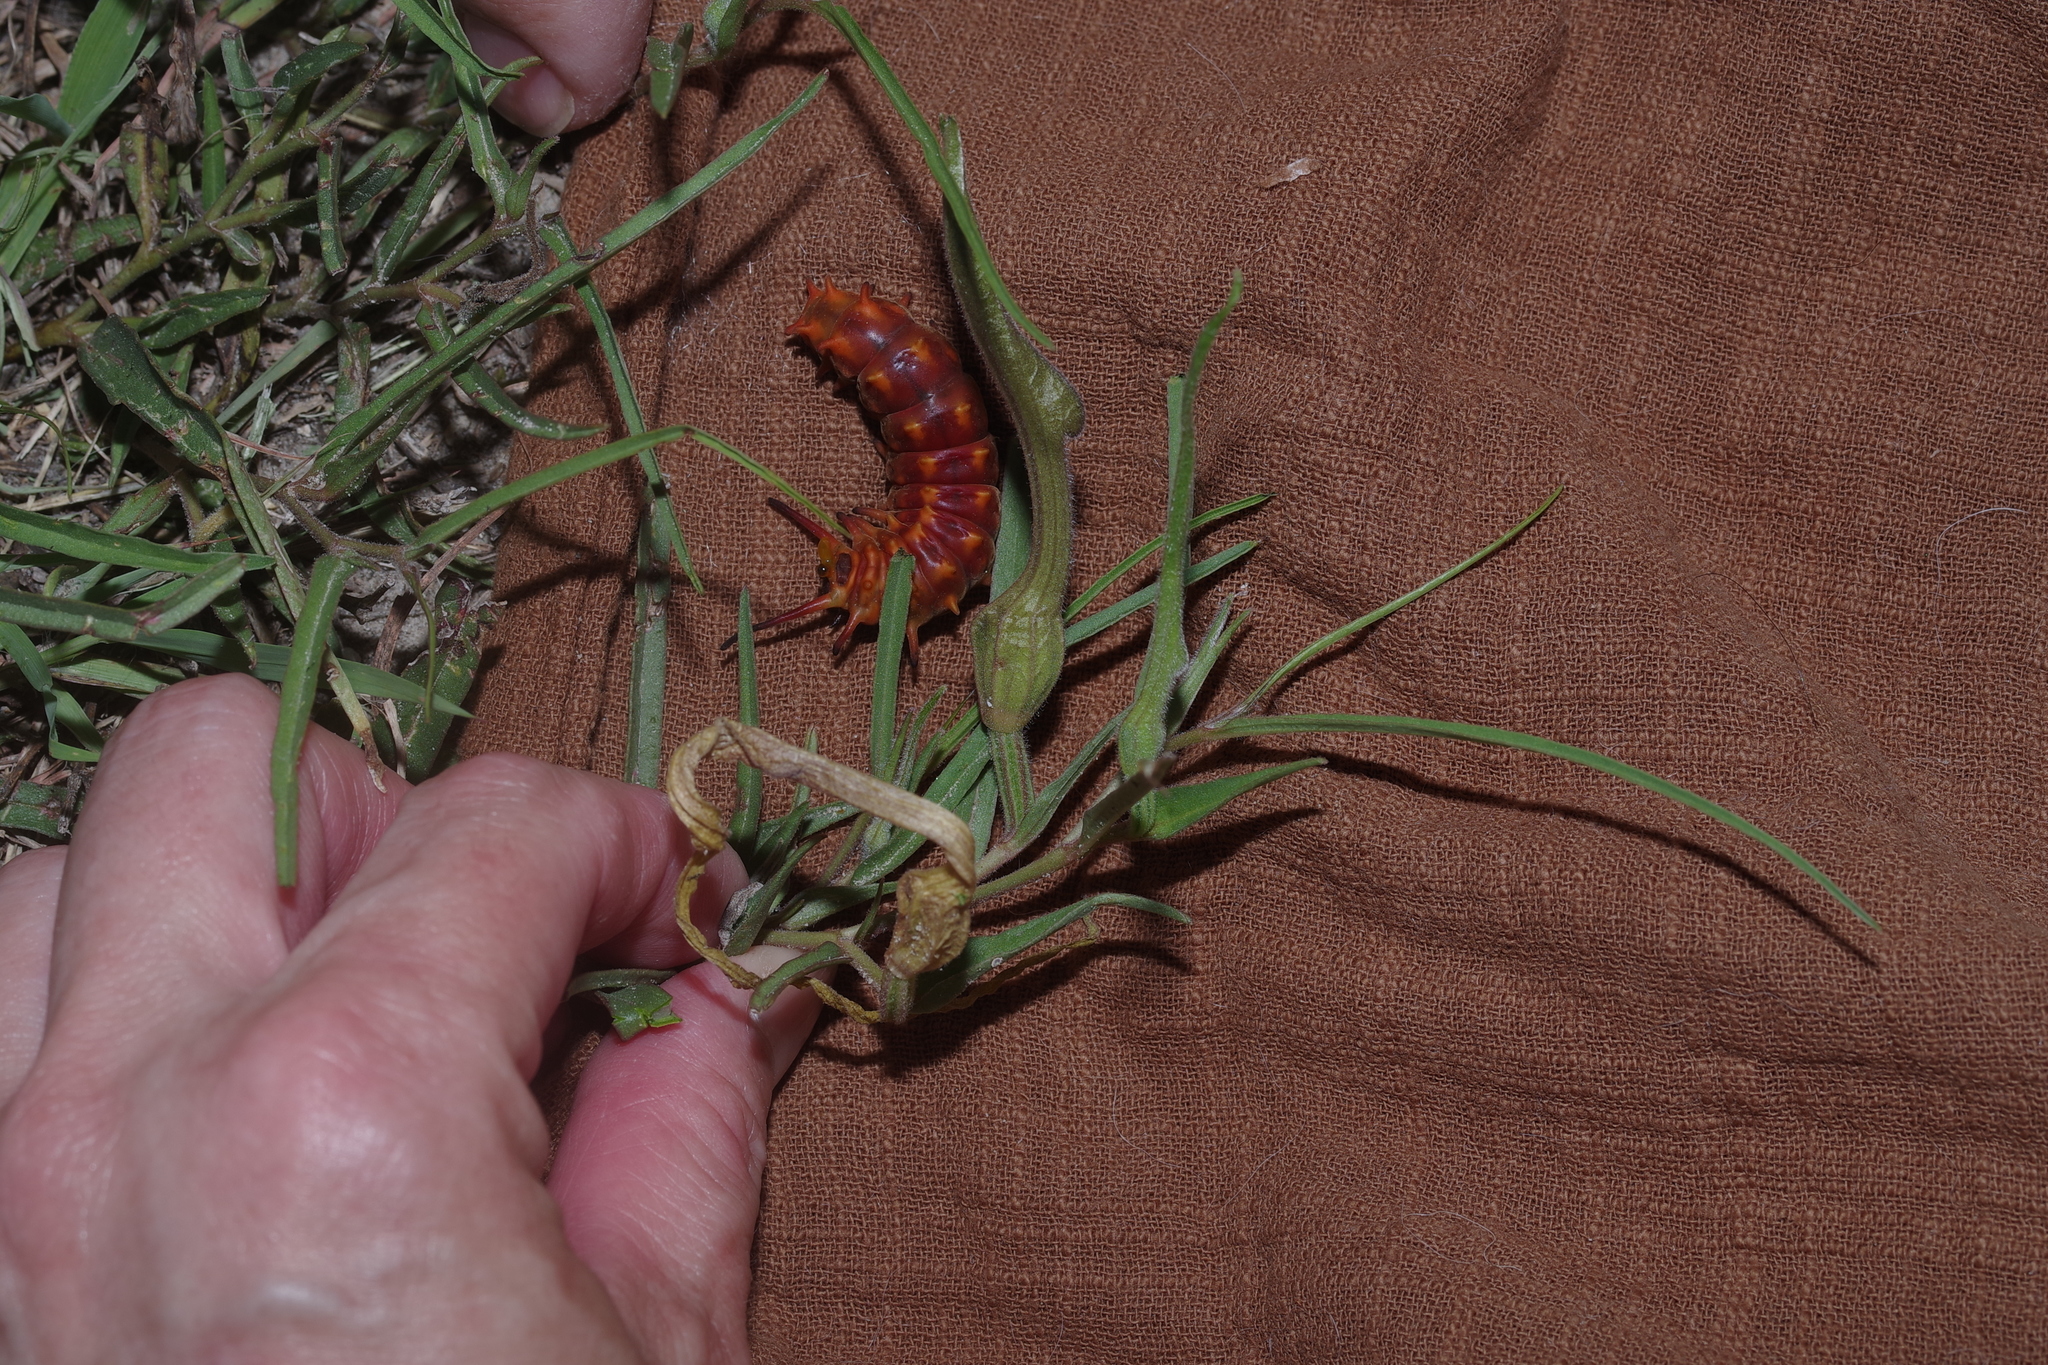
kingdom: Plantae
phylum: Tracheophyta
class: Magnoliopsida
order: Piperales
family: Aristolochiaceae
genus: Aristolochia
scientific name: Aristolochia erecta
